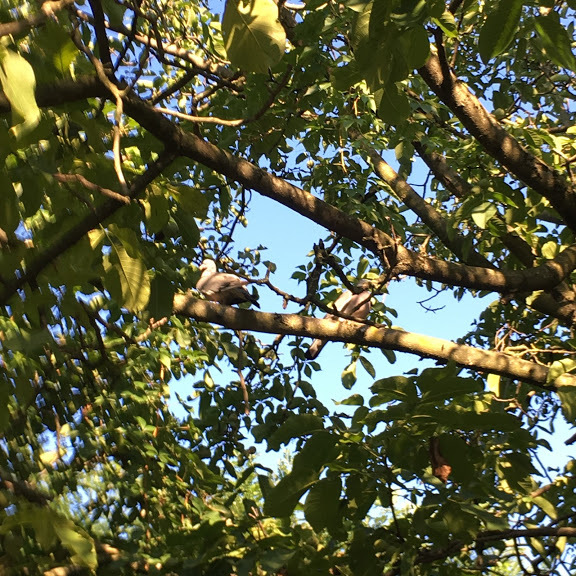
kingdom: Animalia
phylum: Chordata
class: Aves
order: Columbiformes
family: Columbidae
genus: Columba
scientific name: Columba palumbus
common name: Common wood pigeon
